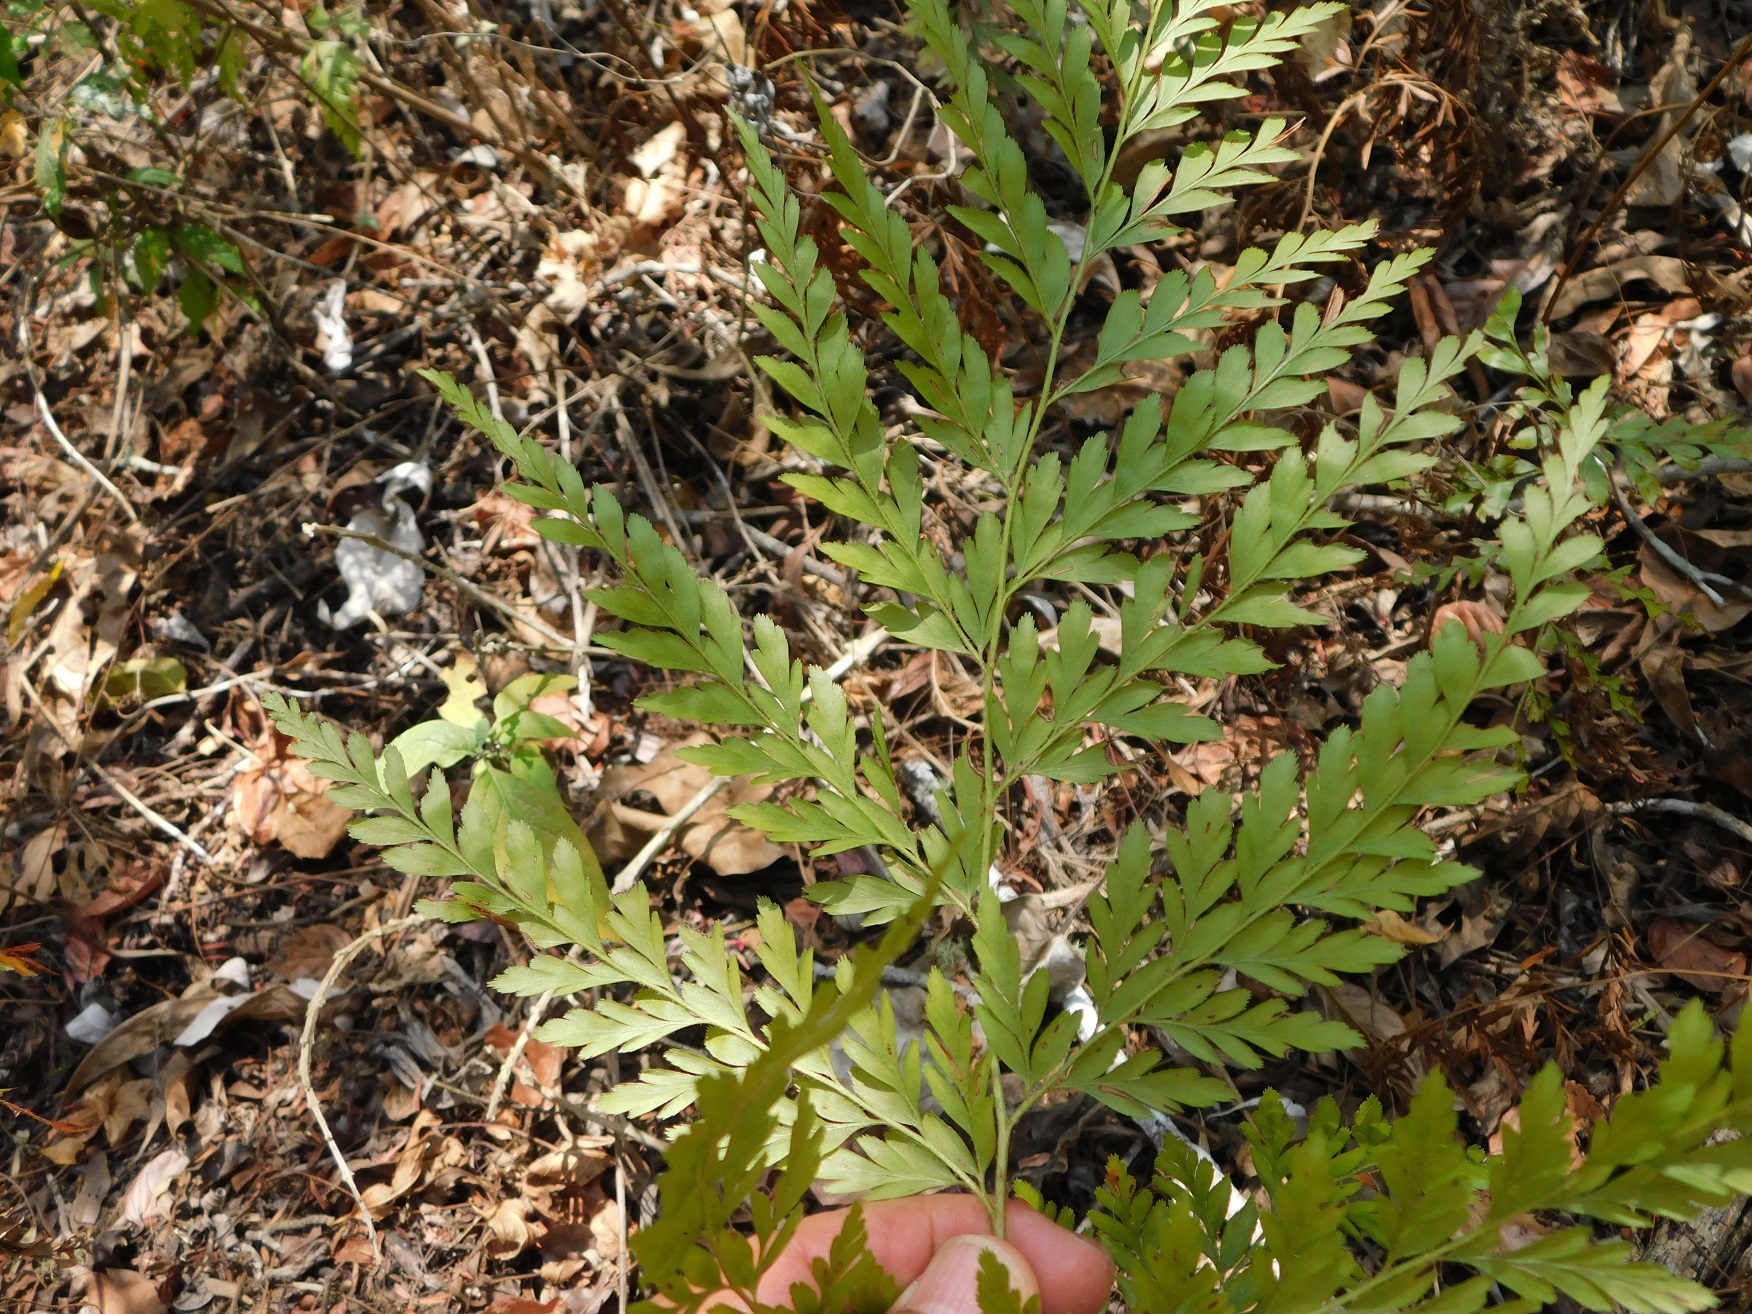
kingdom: Plantae
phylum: Tracheophyta
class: Polypodiopsida
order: Schizaeales
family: Anemiaceae
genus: Anemia
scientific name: Anemia adiantifolia
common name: Pine fern
